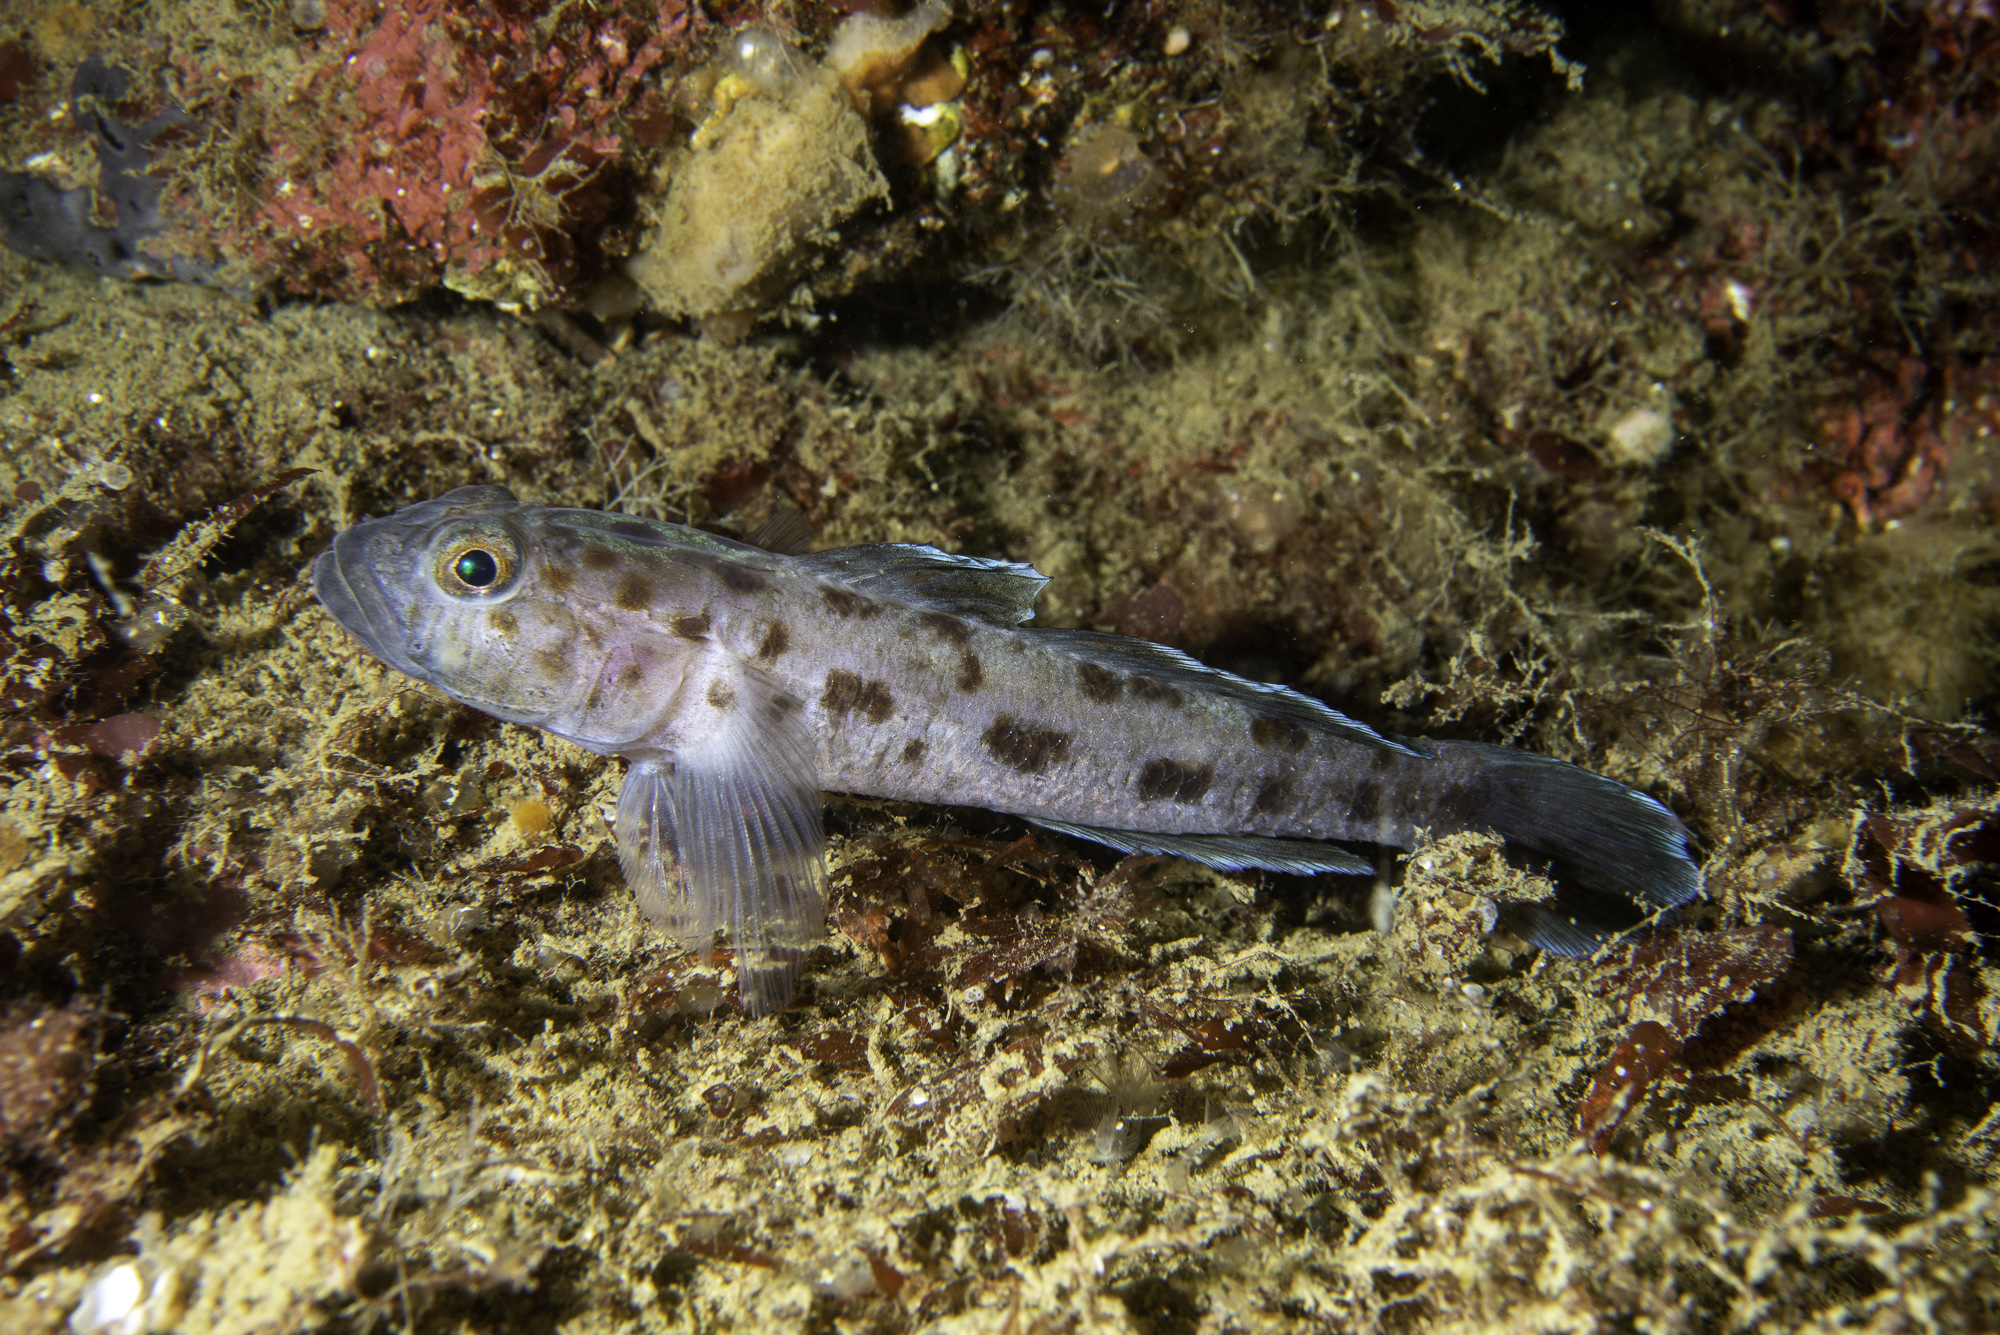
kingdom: Animalia
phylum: Chordata
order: Perciformes
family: Gobiidae
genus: Thorogobius
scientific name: Thorogobius ephippiatus
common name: Leopard-spotted goby
